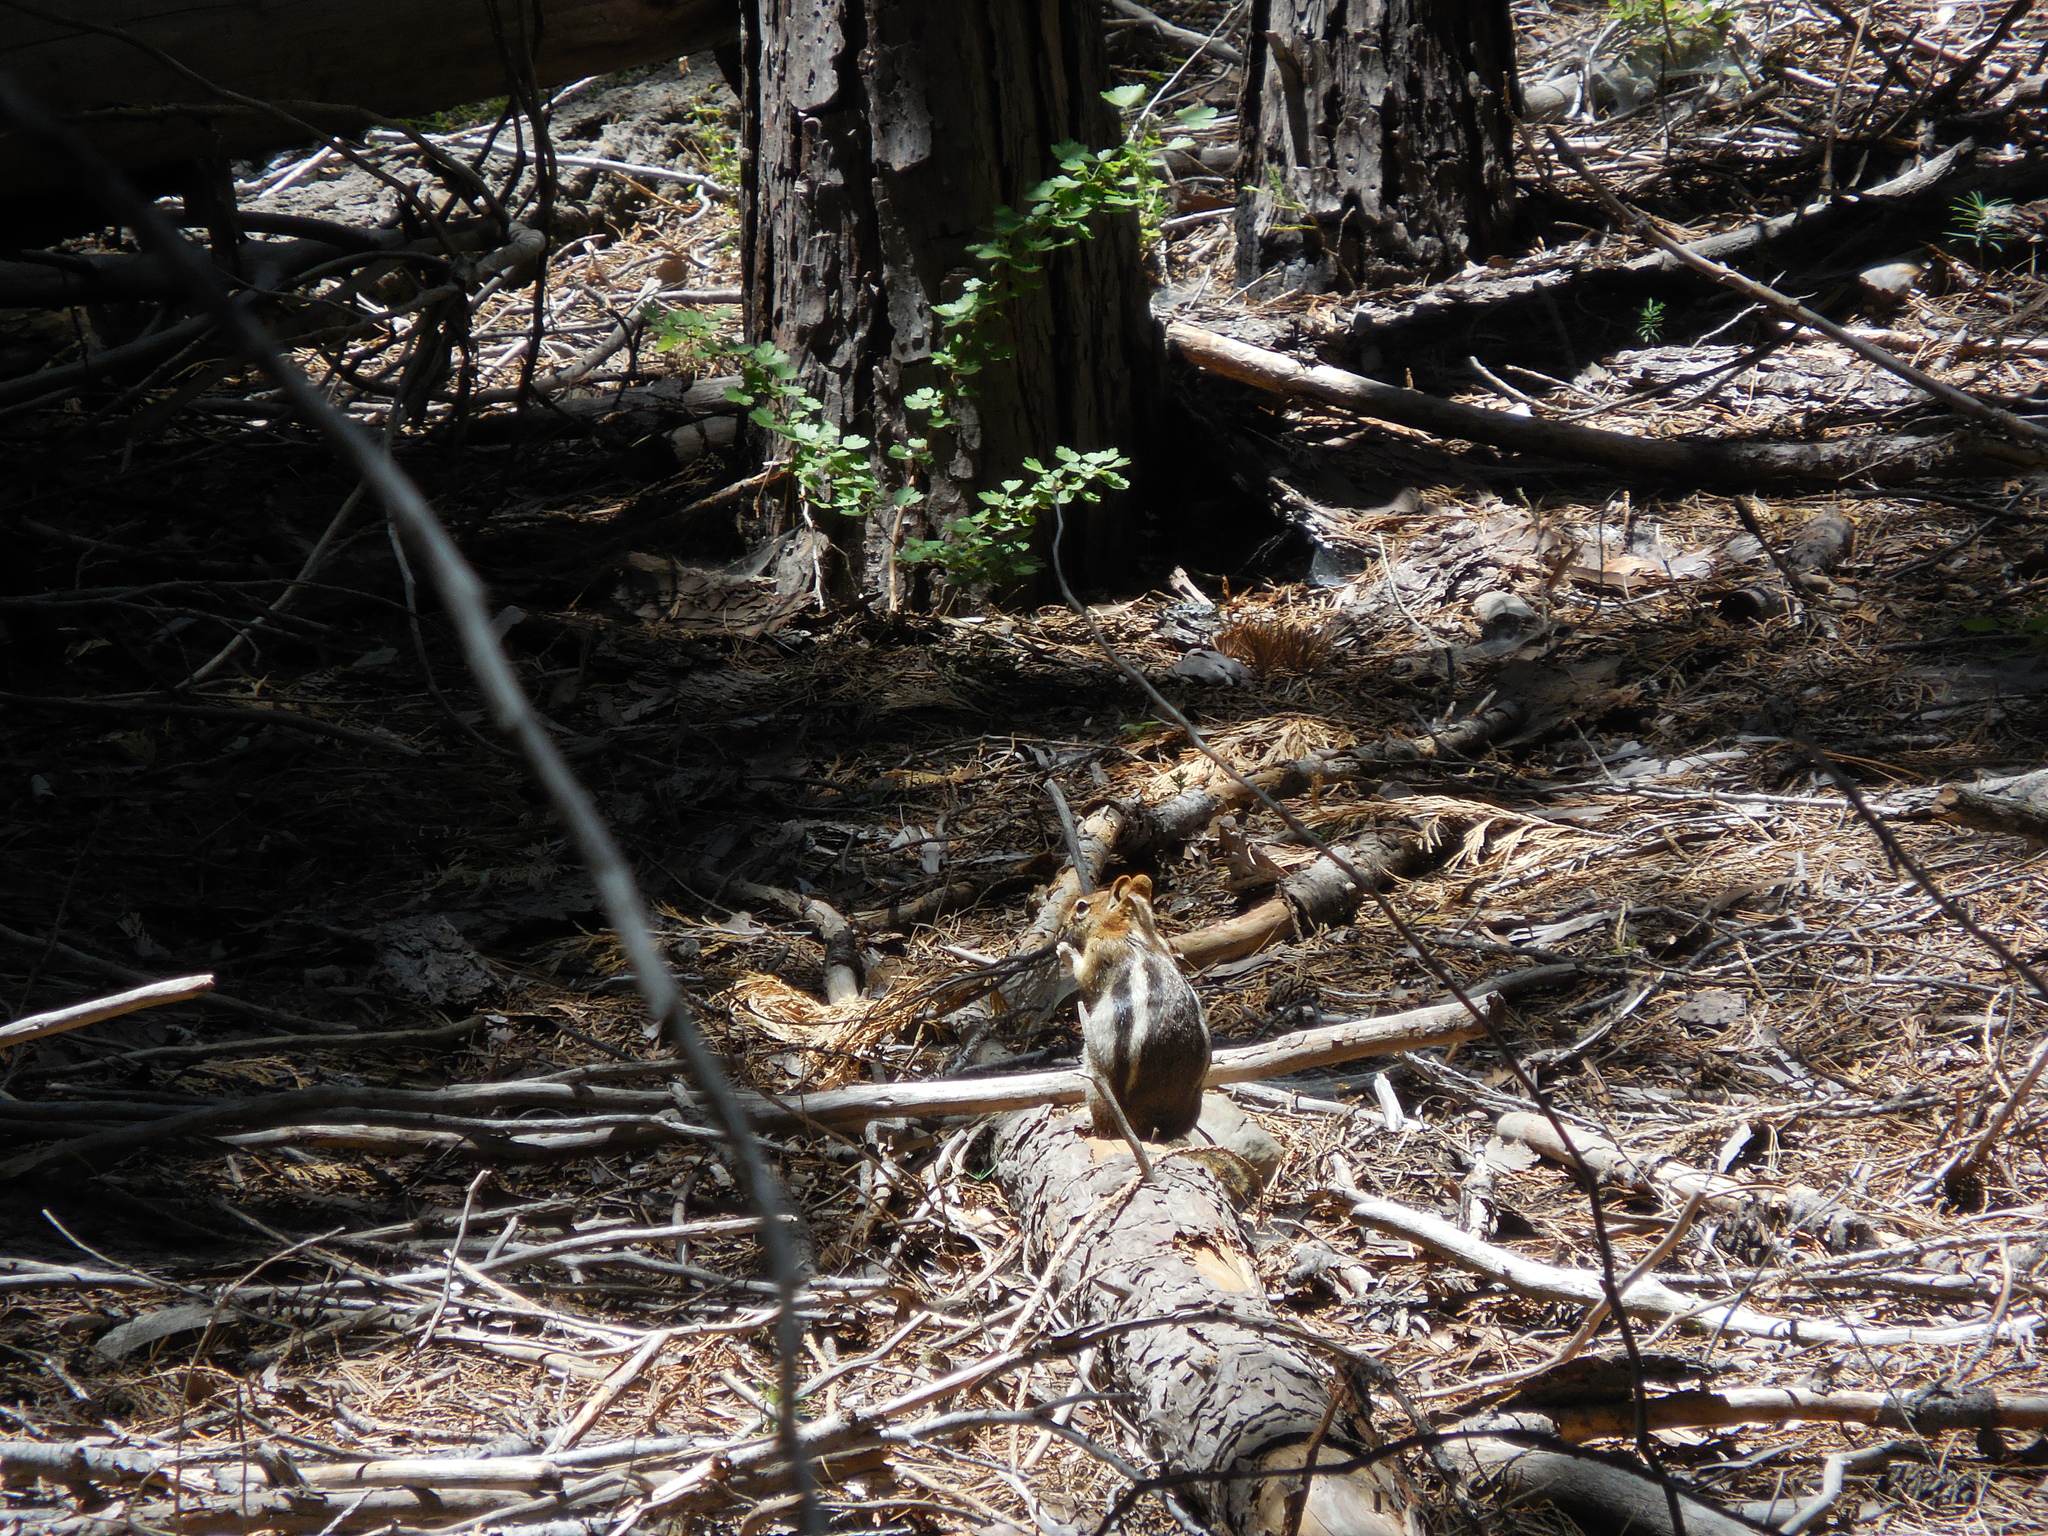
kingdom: Animalia
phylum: Chordata
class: Mammalia
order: Rodentia
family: Sciuridae
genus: Callospermophilus
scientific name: Callospermophilus lateralis
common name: Golden-mantled ground squirrel
